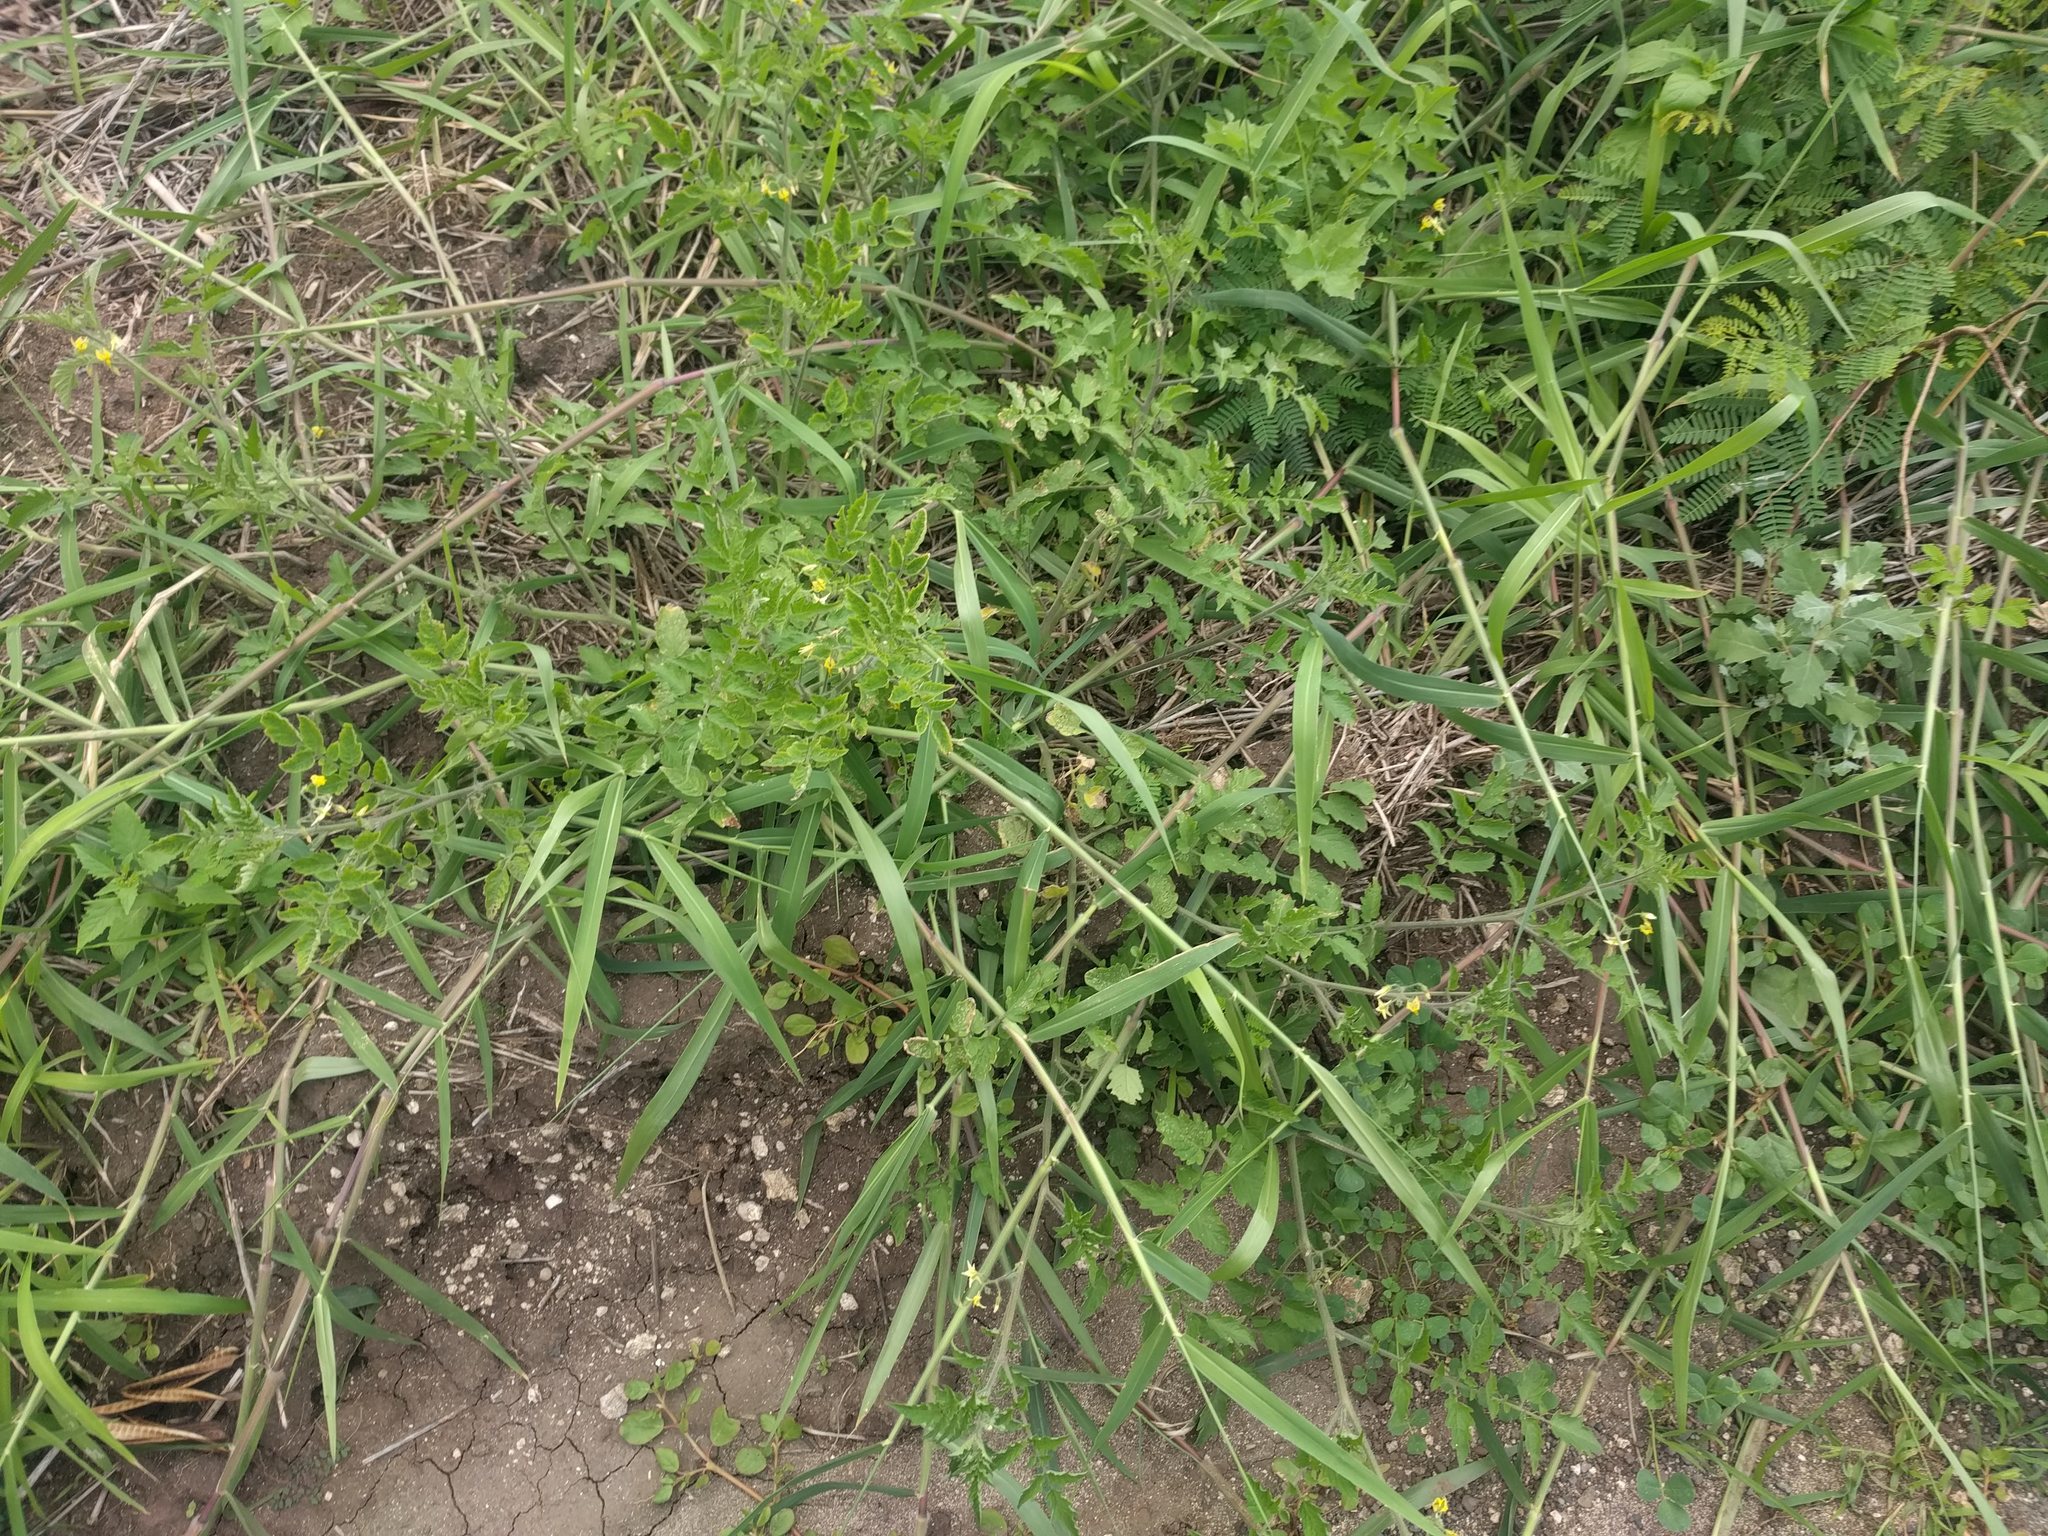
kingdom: Plantae
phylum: Tracheophyta
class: Magnoliopsida
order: Solanales
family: Solanaceae
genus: Solanum
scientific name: Solanum lycopersicum
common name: Garden tomato
